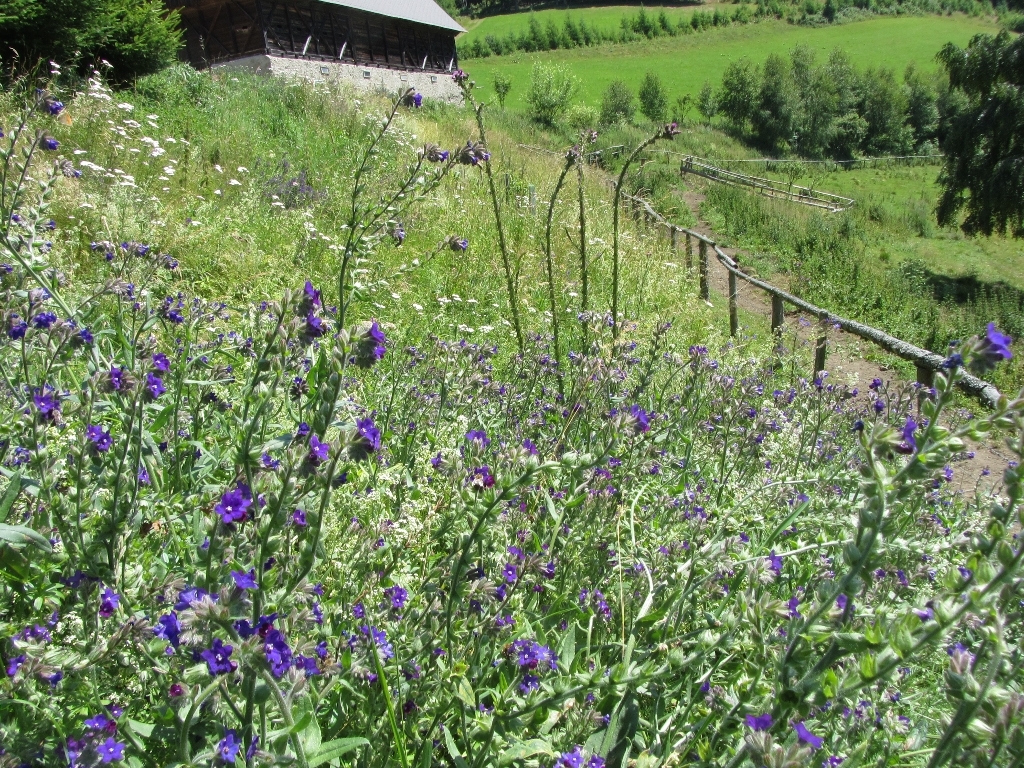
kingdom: Plantae
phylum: Tracheophyta
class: Magnoliopsida
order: Boraginales
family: Boraginaceae
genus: Anchusa
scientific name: Anchusa officinalis
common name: Alkanet
